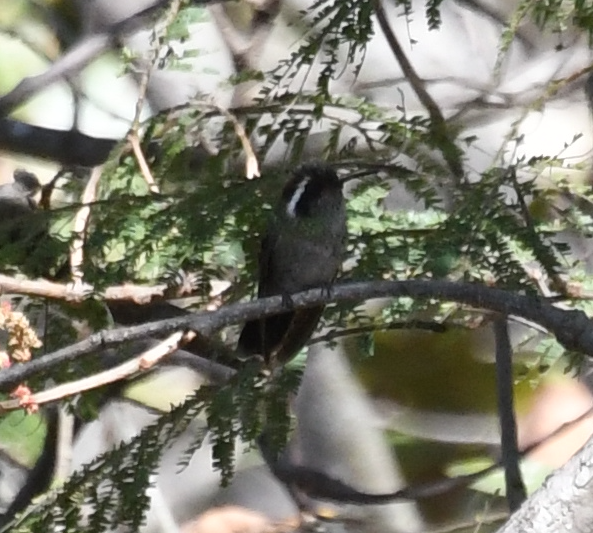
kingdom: Animalia
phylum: Chordata
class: Aves
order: Apodiformes
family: Trochilidae
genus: Basilinna
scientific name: Basilinna leucotis
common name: White-eared hummingbird
